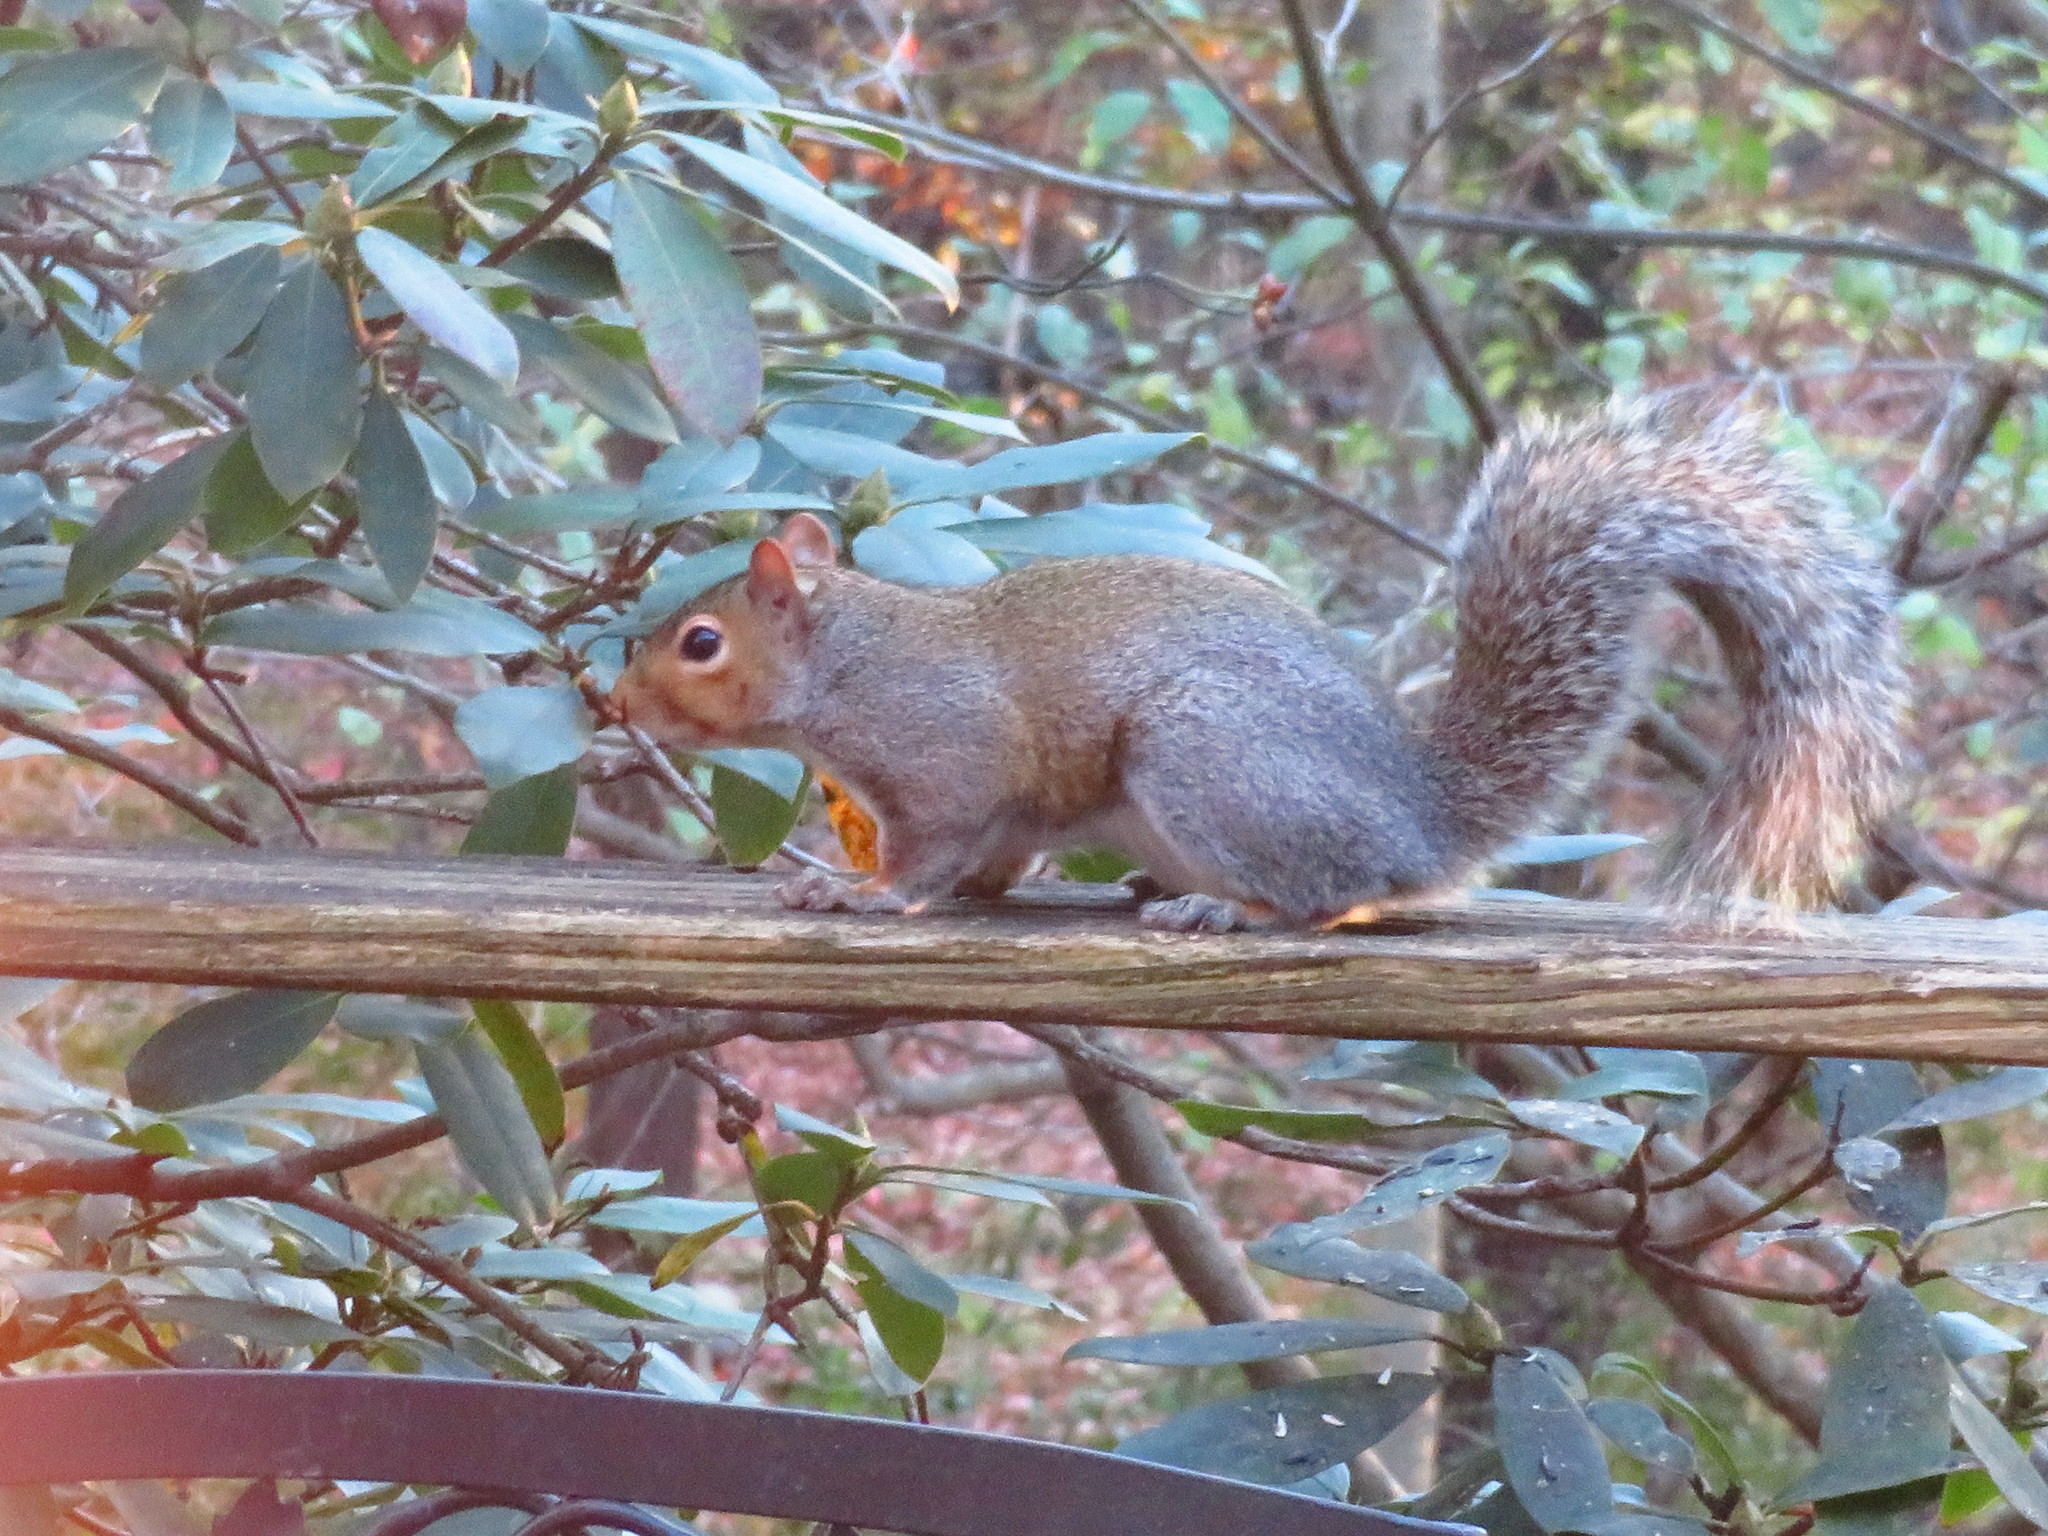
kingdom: Animalia
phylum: Chordata
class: Mammalia
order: Rodentia
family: Sciuridae
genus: Sciurus
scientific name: Sciurus carolinensis
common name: Eastern gray squirrel
